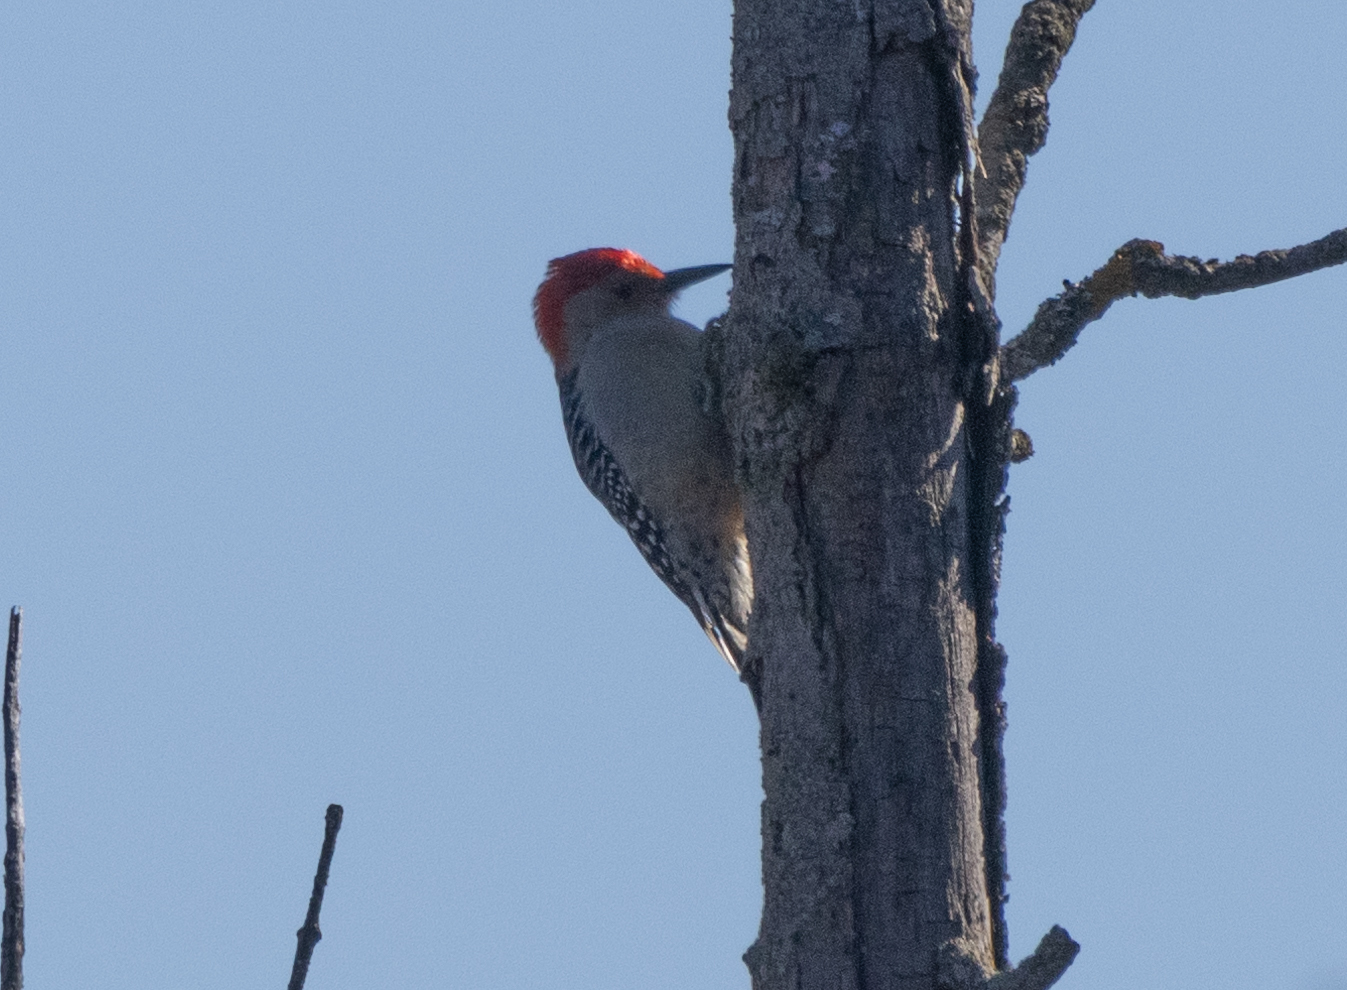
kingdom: Animalia
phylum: Chordata
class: Aves
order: Piciformes
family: Picidae
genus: Melanerpes
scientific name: Melanerpes carolinus
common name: Red-bellied woodpecker
